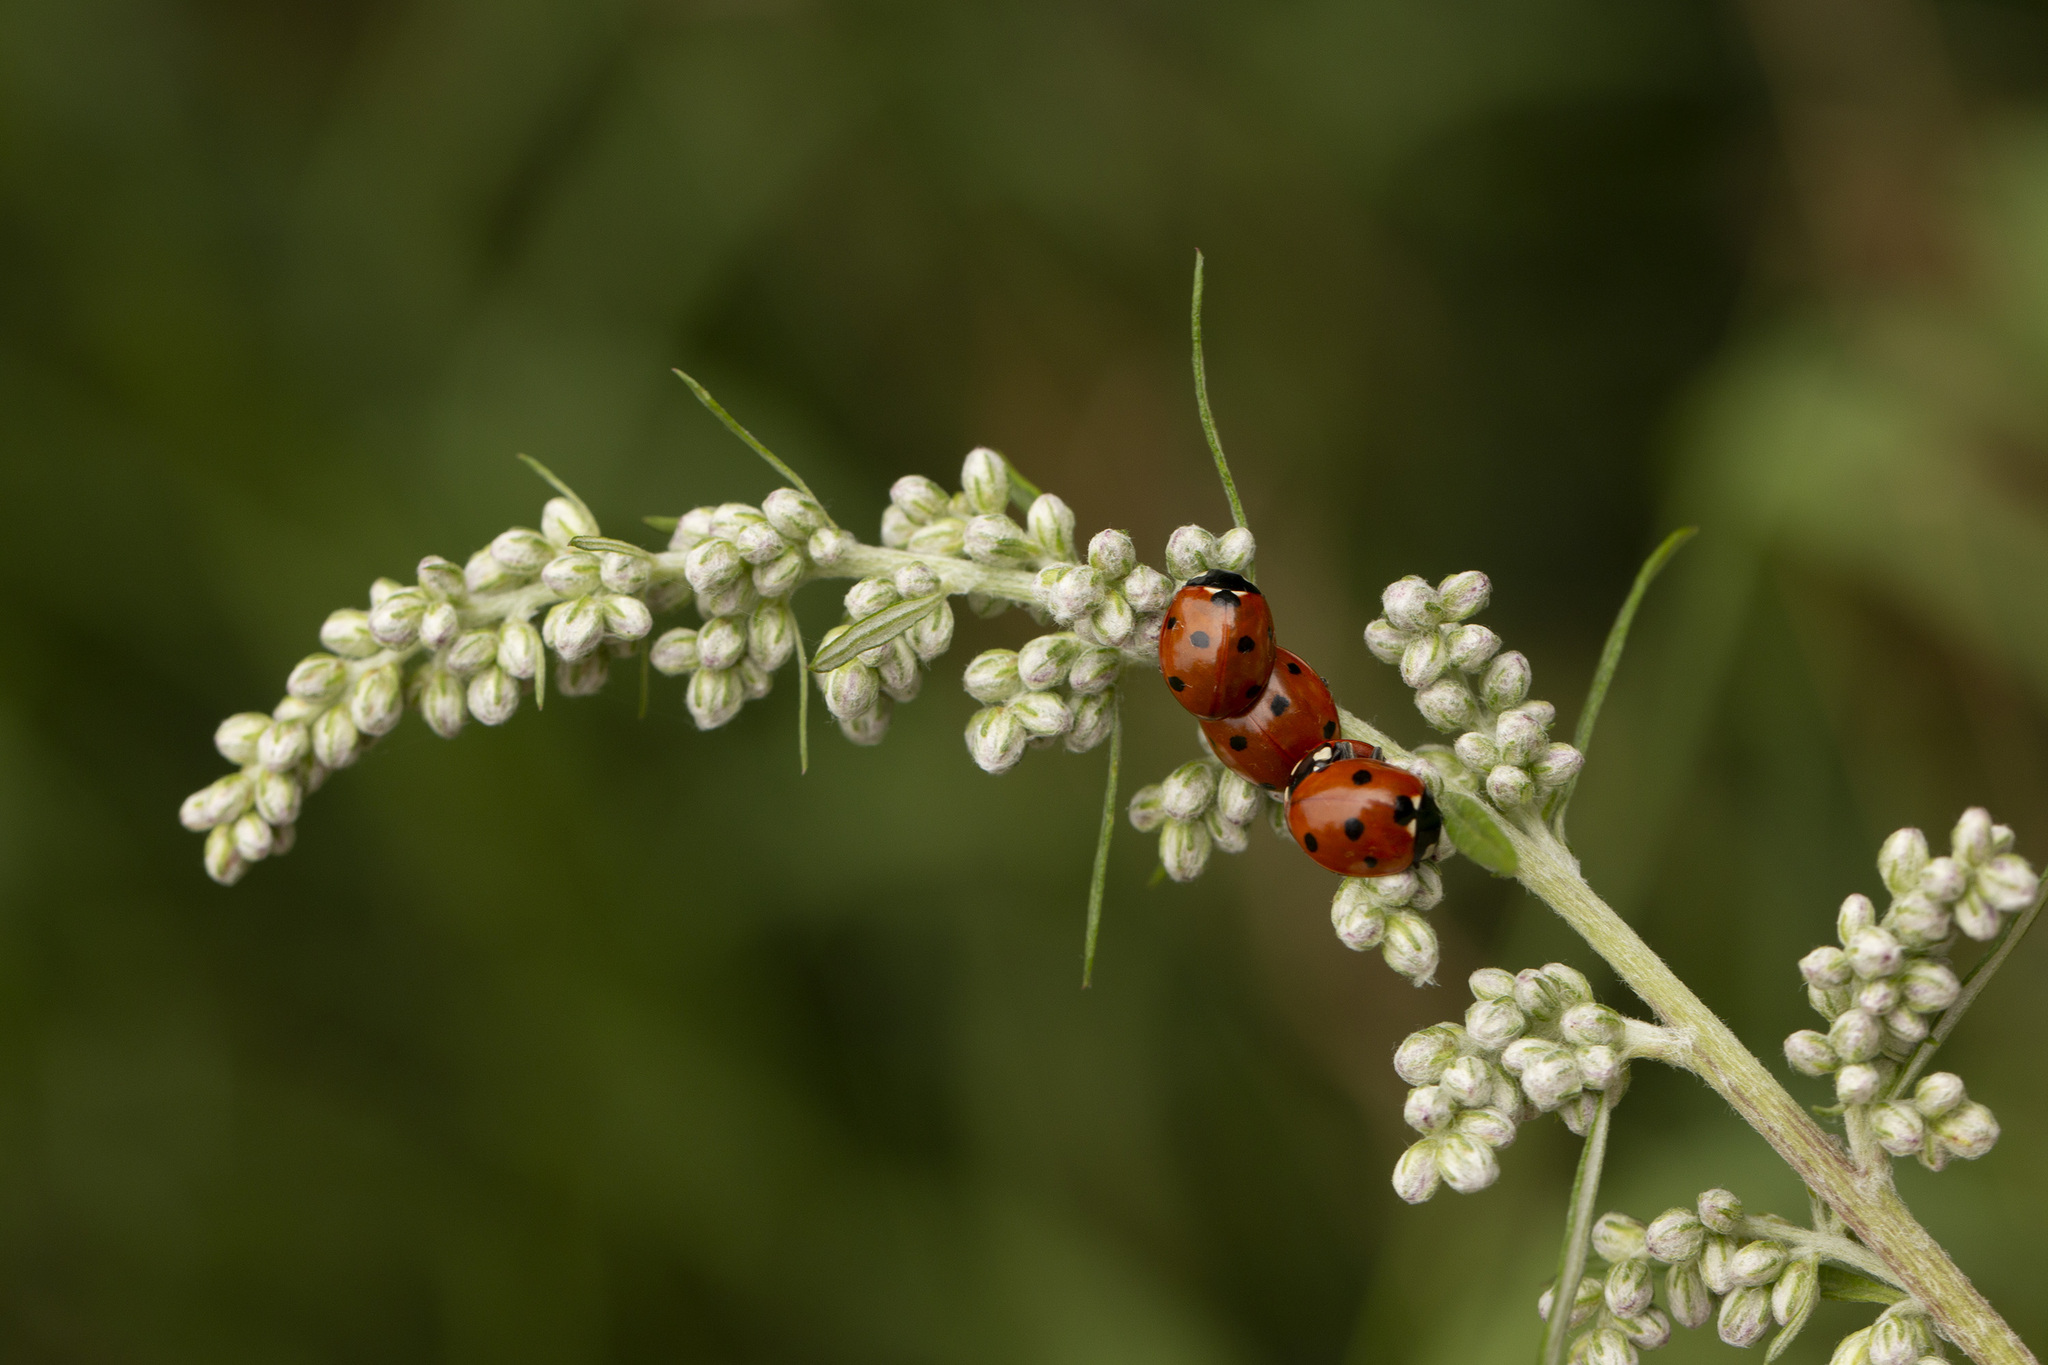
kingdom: Animalia
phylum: Arthropoda
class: Insecta
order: Coleoptera
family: Coccinellidae
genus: Coccinella
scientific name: Coccinella septempunctata
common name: Sevenspotted lady beetle
